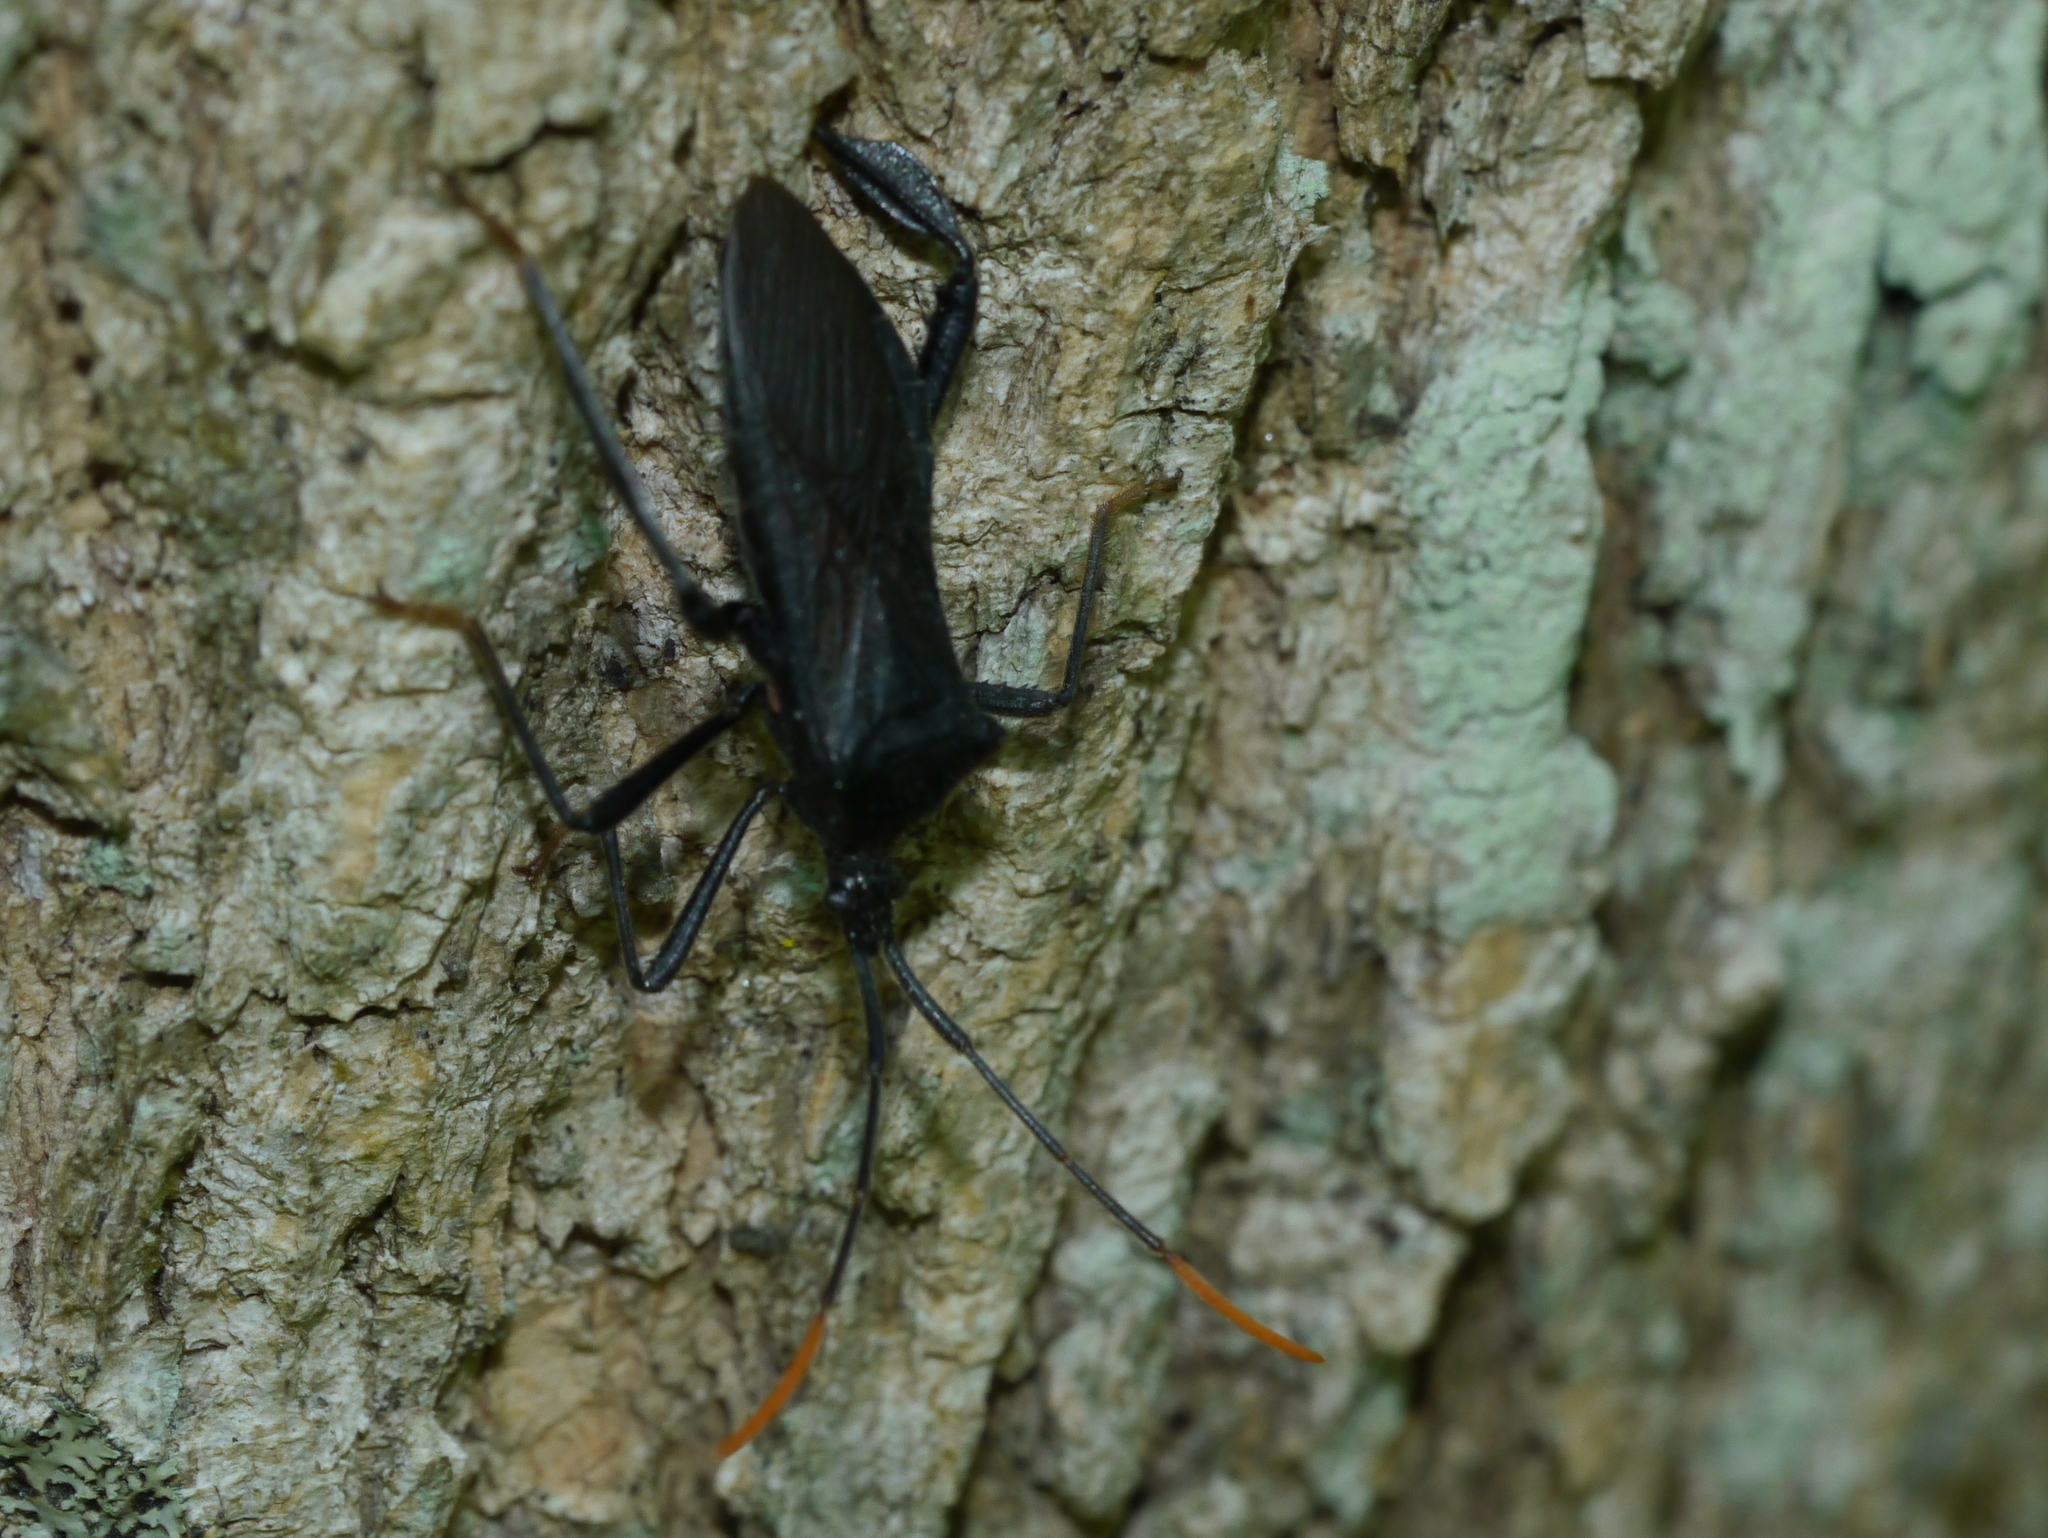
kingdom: Animalia
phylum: Arthropoda
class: Insecta
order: Hemiptera
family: Coreidae
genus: Acanthocephala
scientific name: Acanthocephala terminalis
